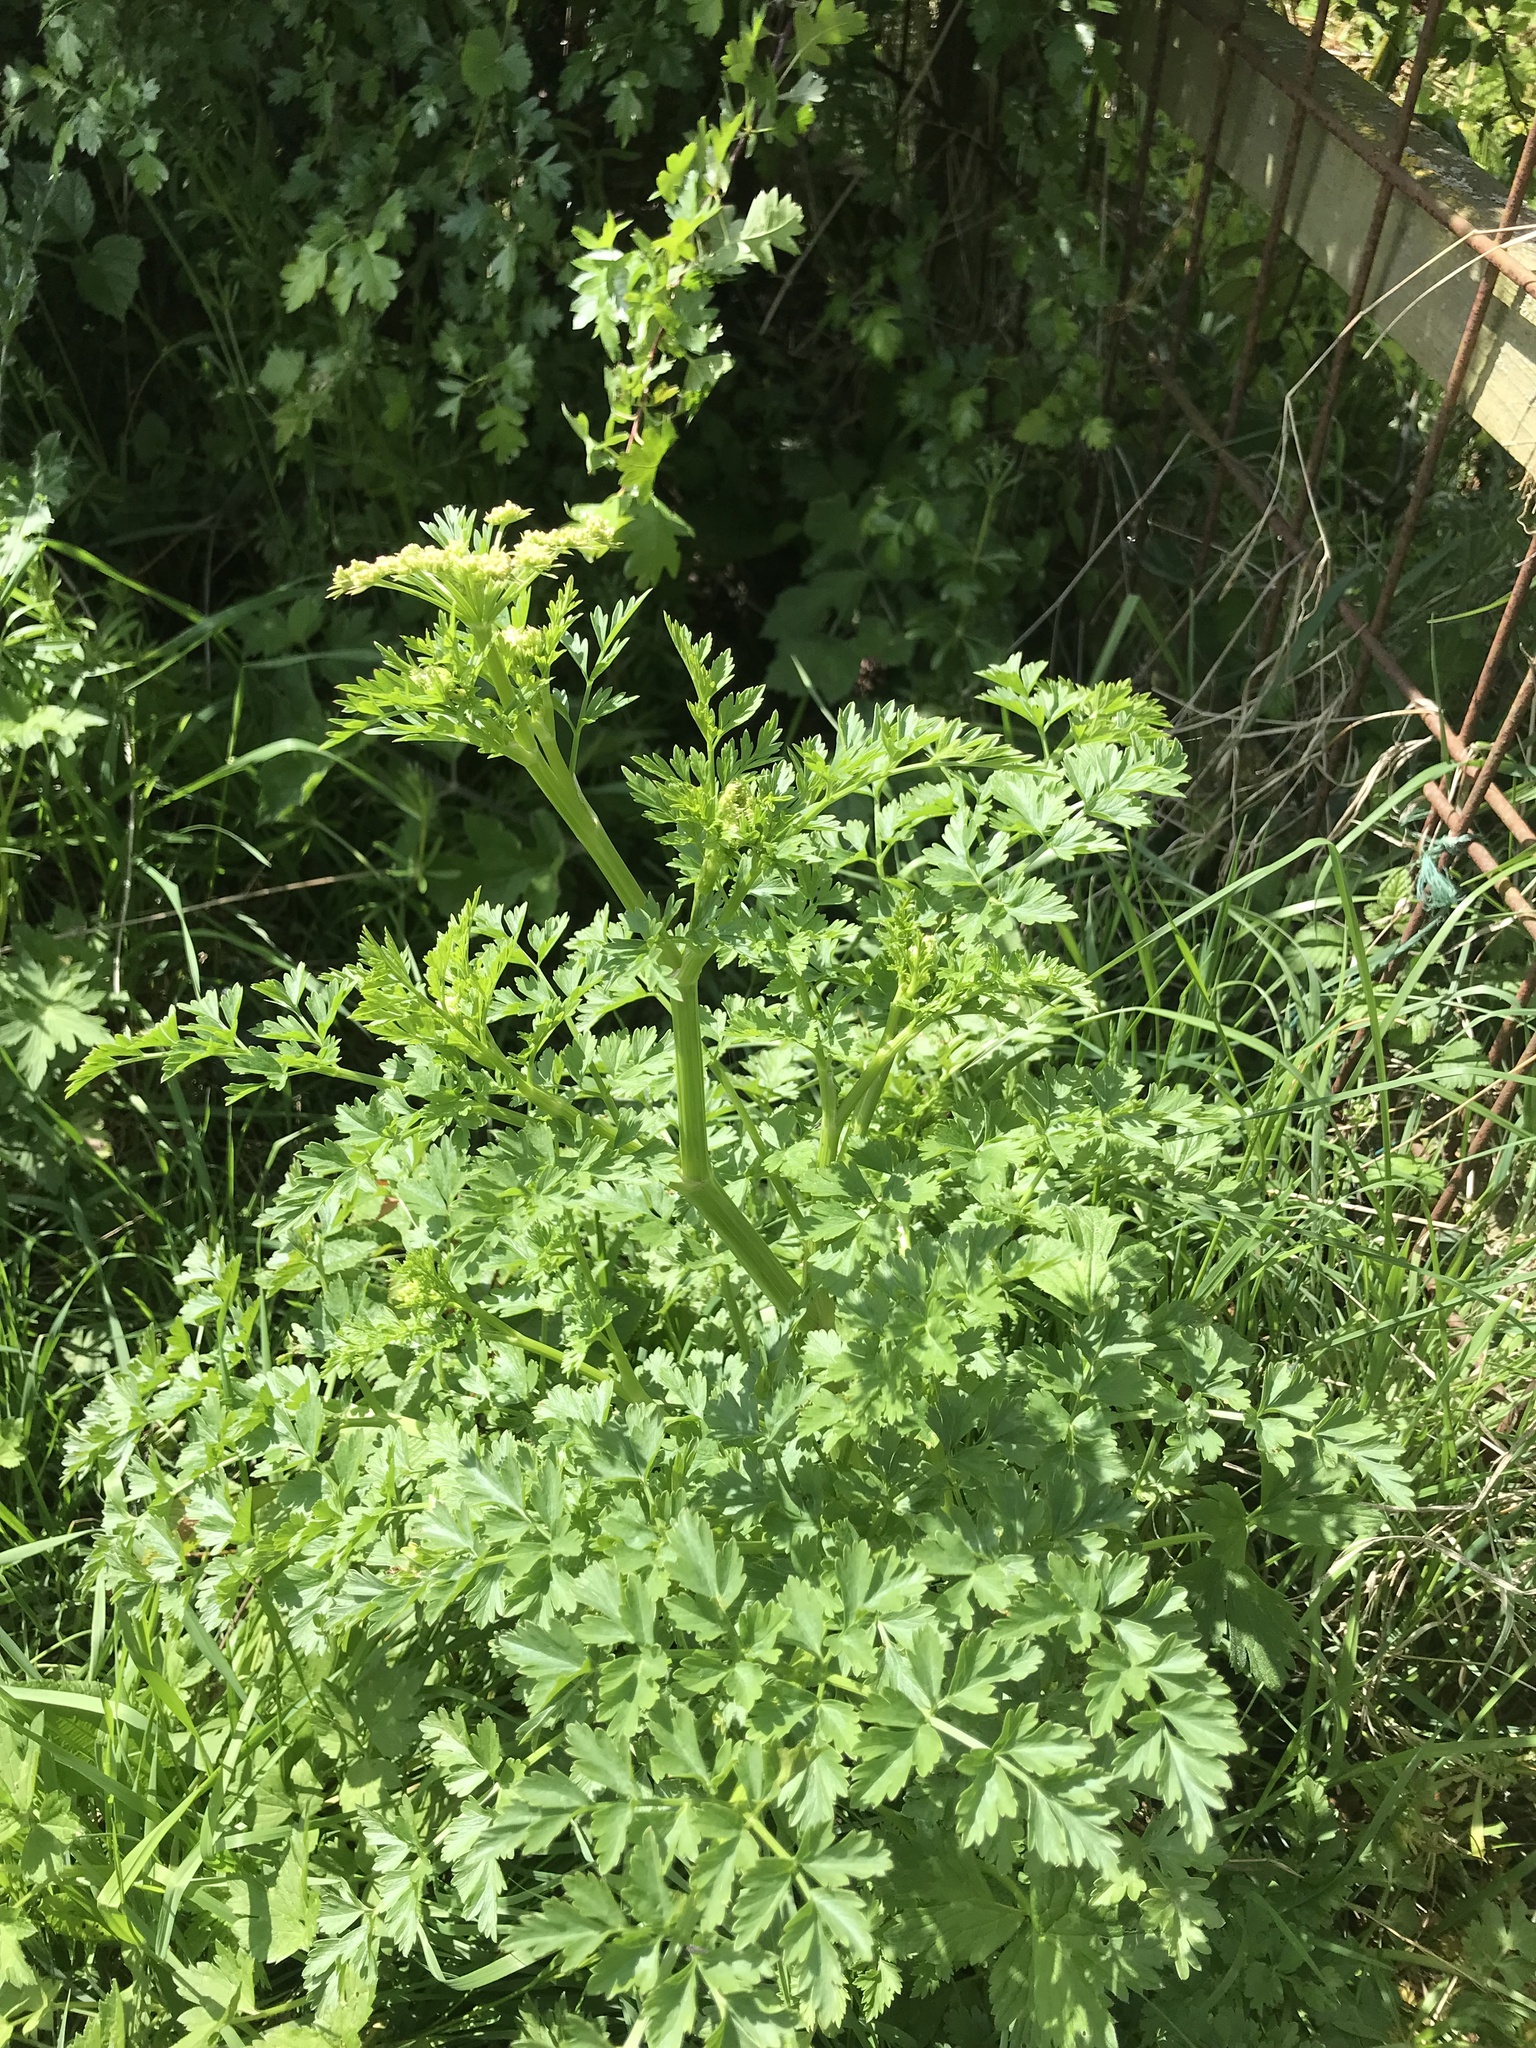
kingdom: Plantae
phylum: Tracheophyta
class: Magnoliopsida
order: Apiales
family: Apiaceae
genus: Oenanthe
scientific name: Oenanthe crocata
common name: Hemlock water-dropwort
